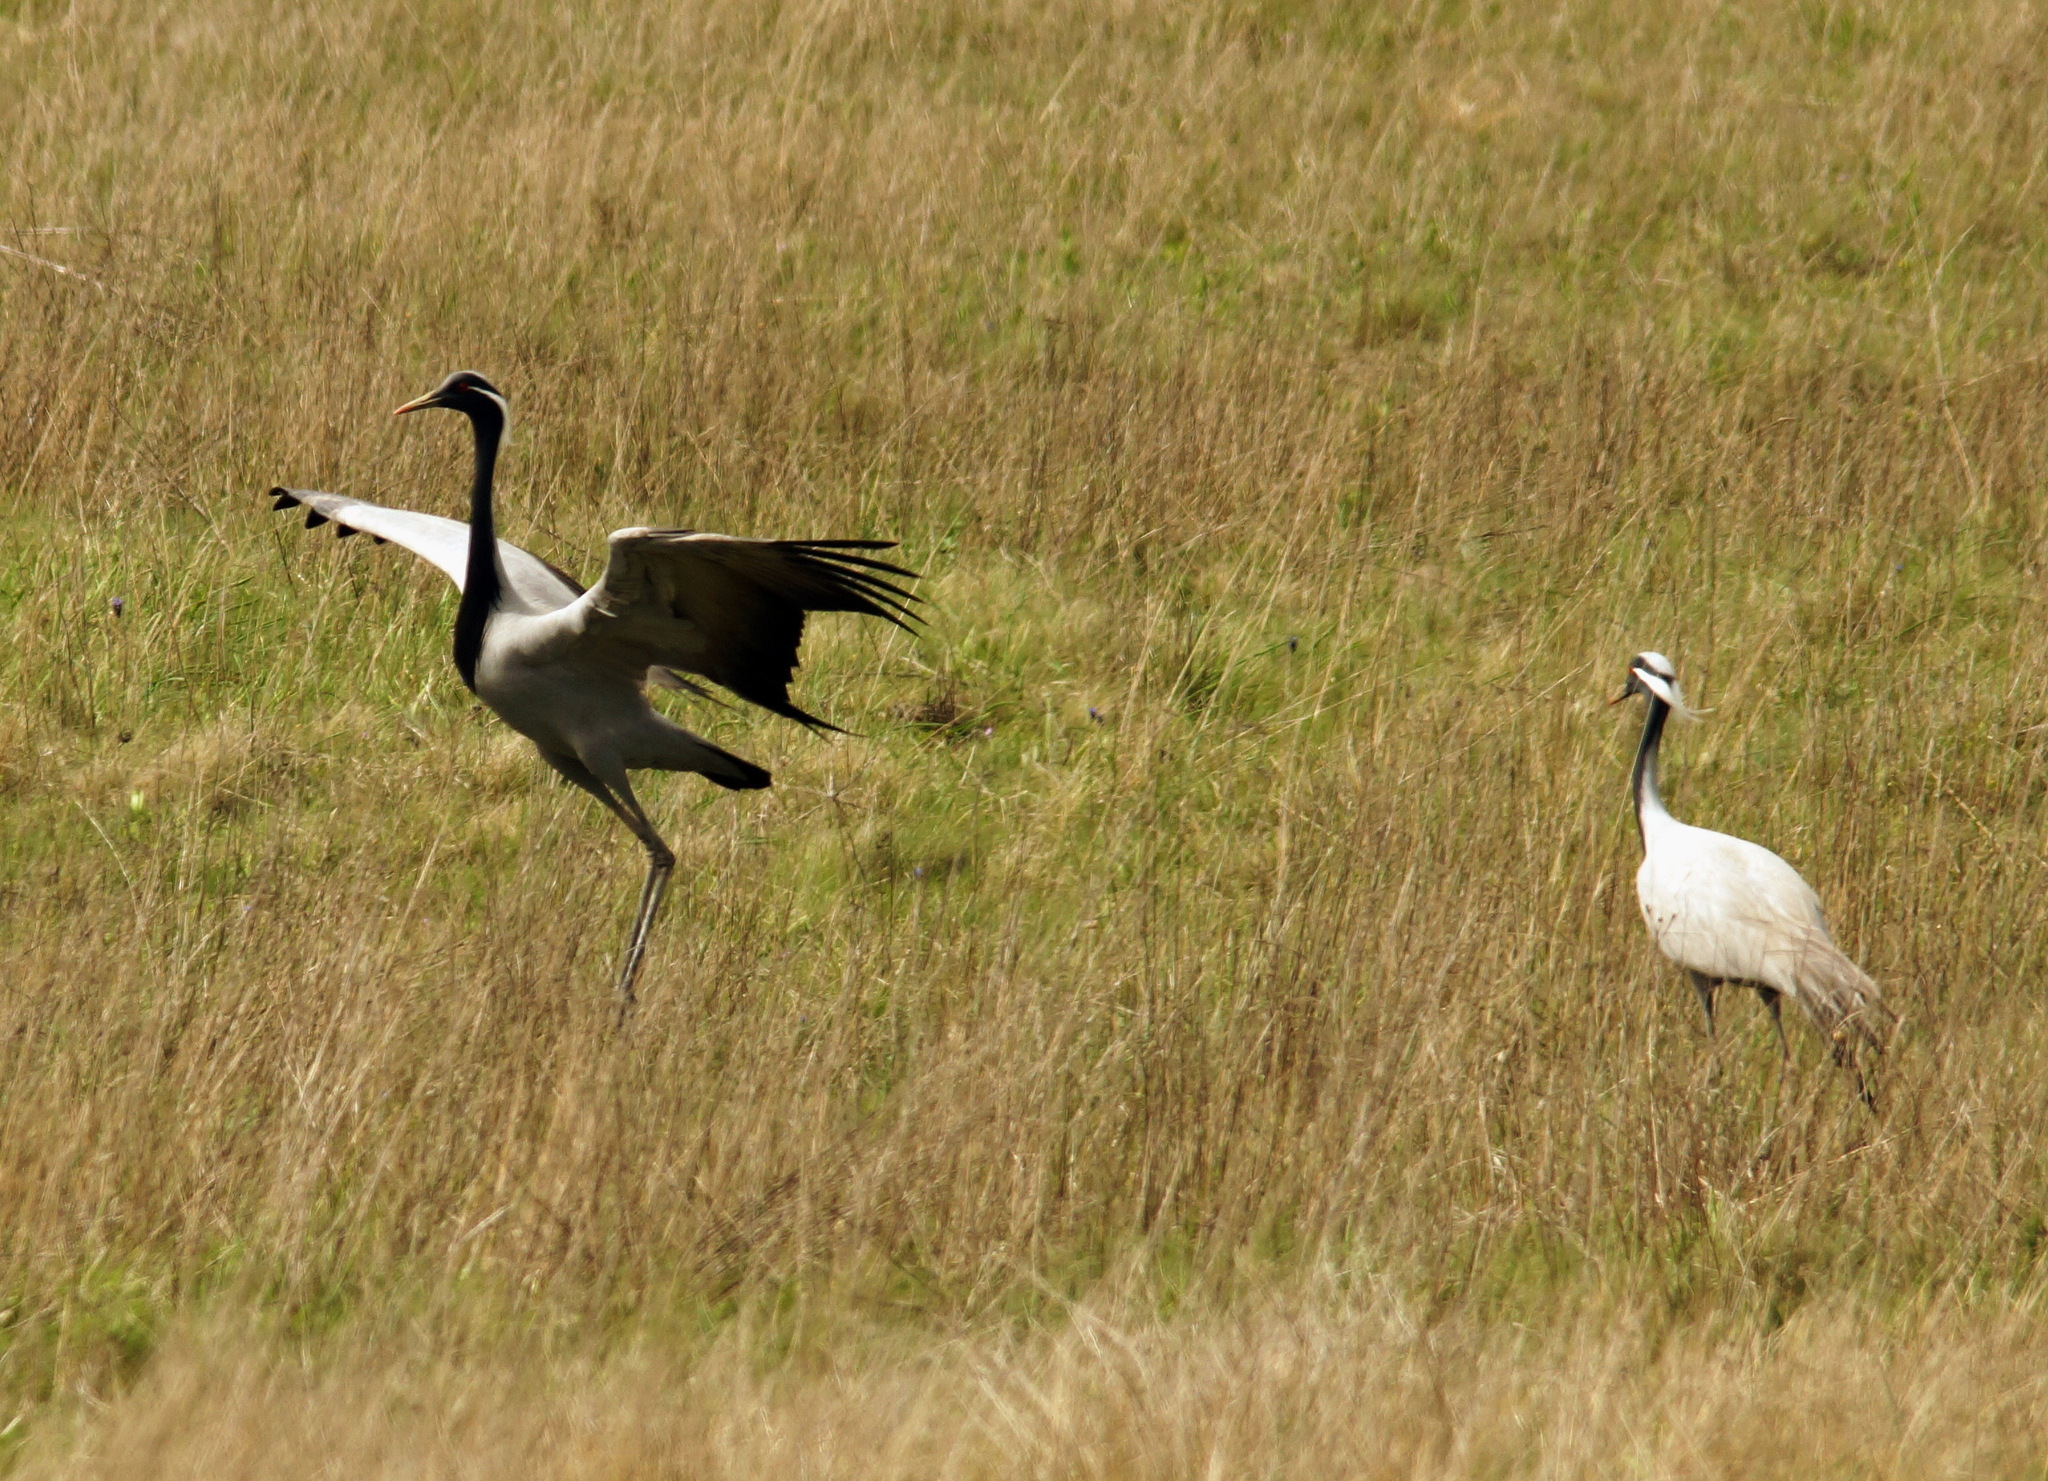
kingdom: Animalia
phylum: Chordata
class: Aves
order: Gruiformes
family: Gruidae
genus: Anthropoides
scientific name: Anthropoides virgo
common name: Demoiselle crane
